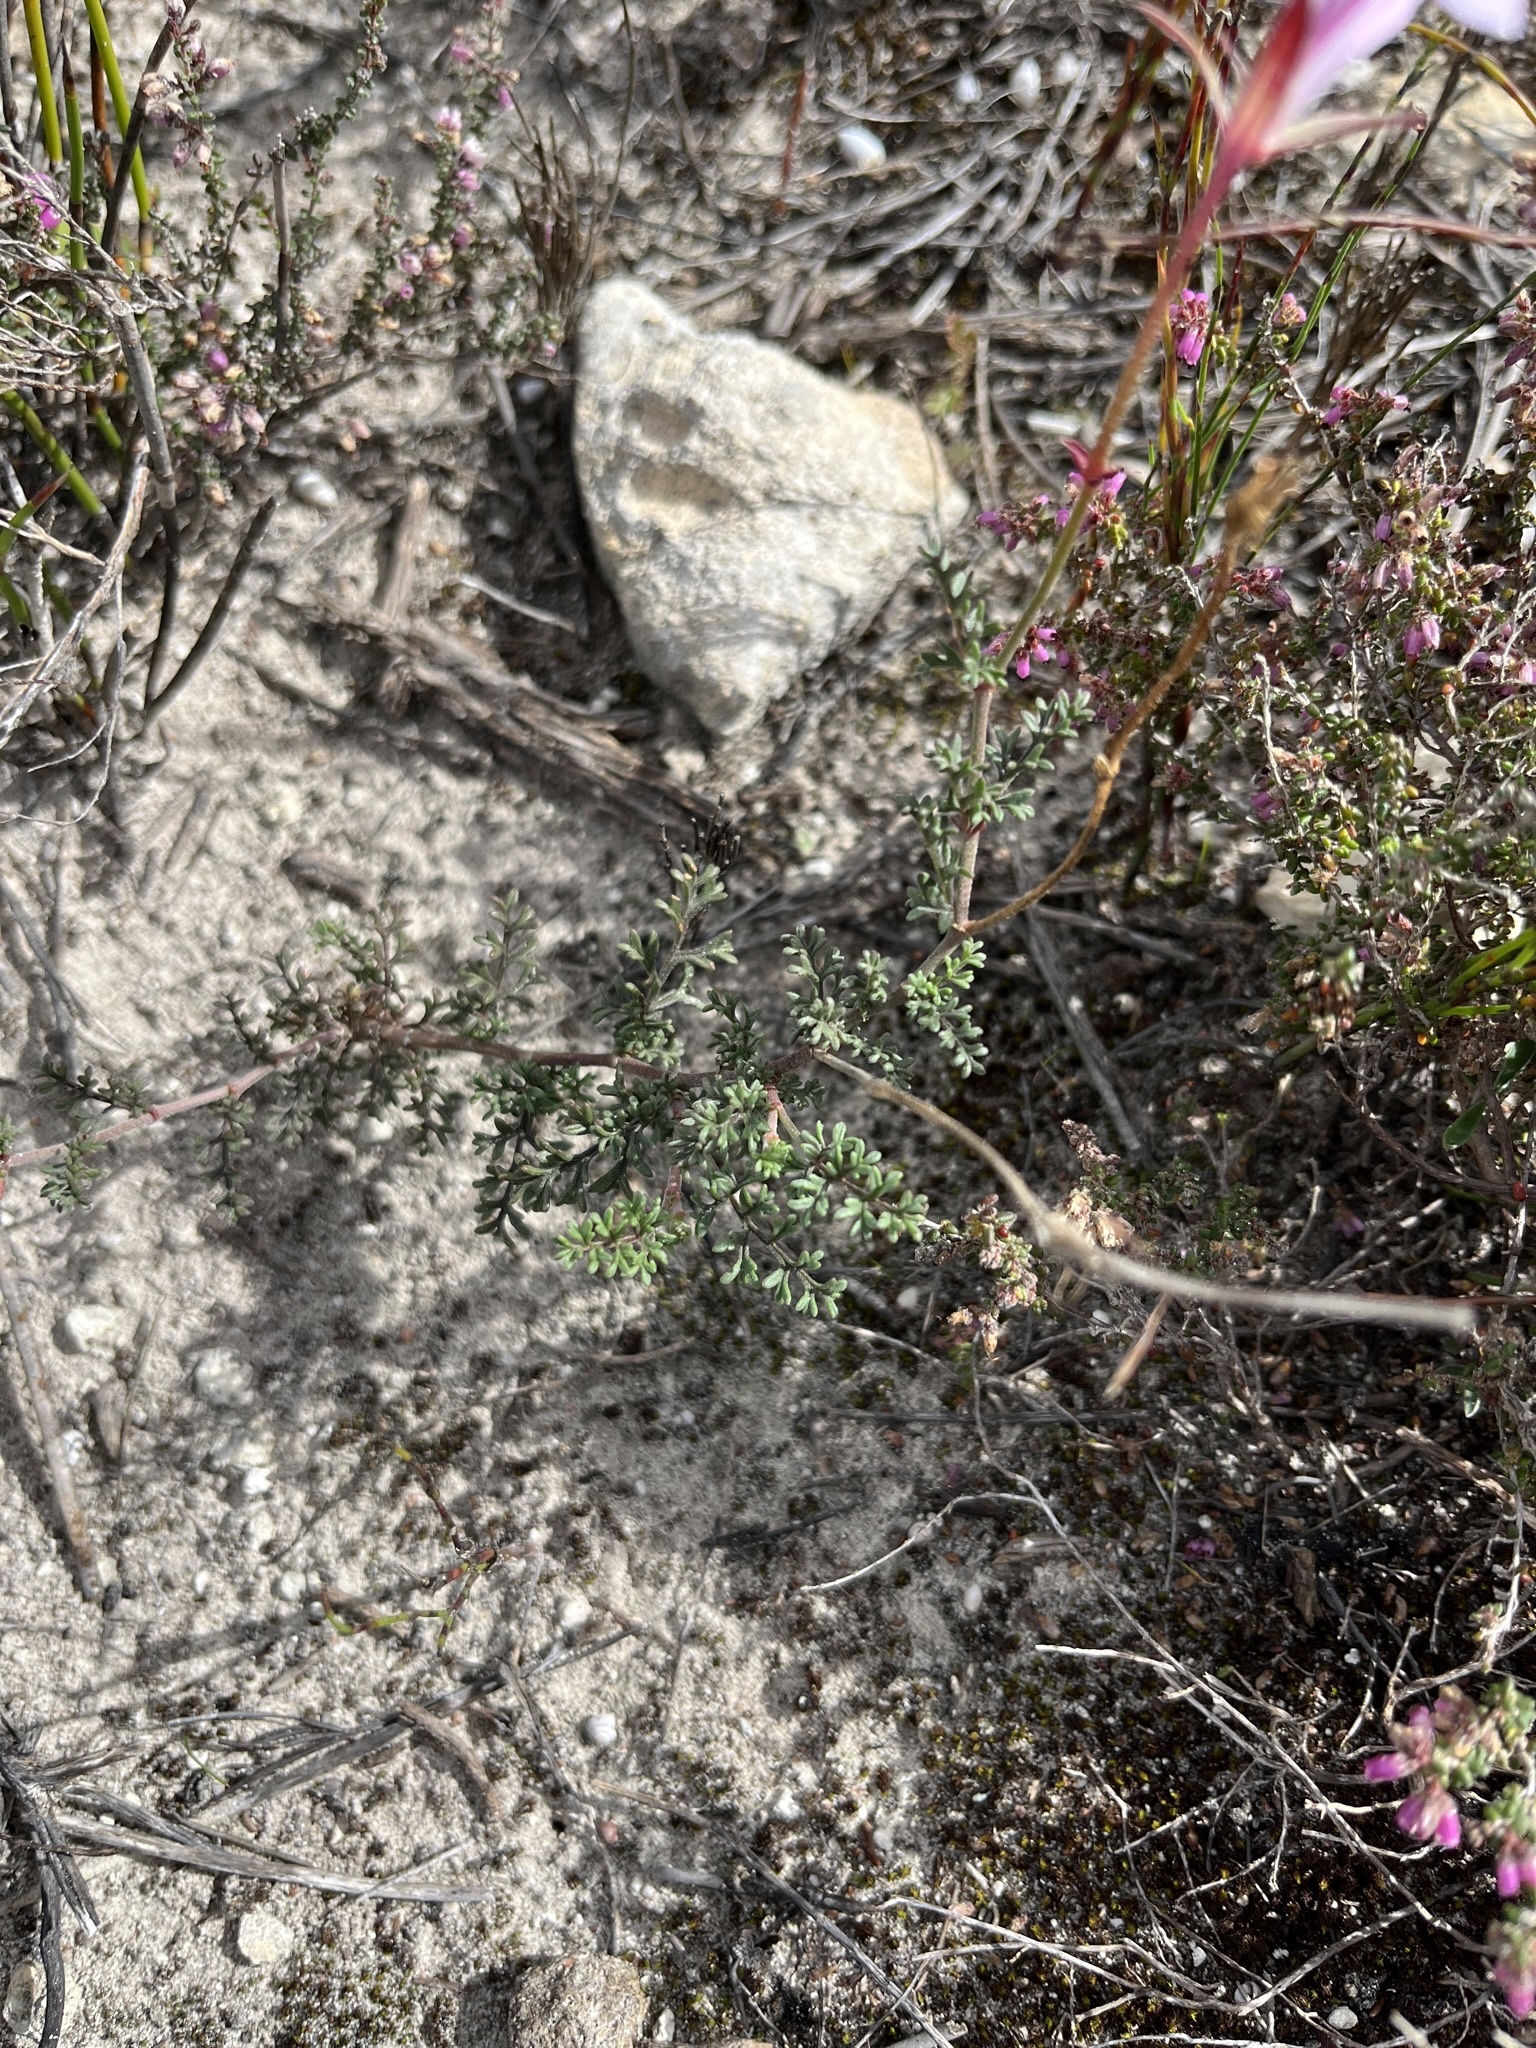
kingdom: Plantae
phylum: Tracheophyta
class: Magnoliopsida
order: Geraniales
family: Geraniaceae
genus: Pelargonium
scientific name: Pelargonium caucalifolium
